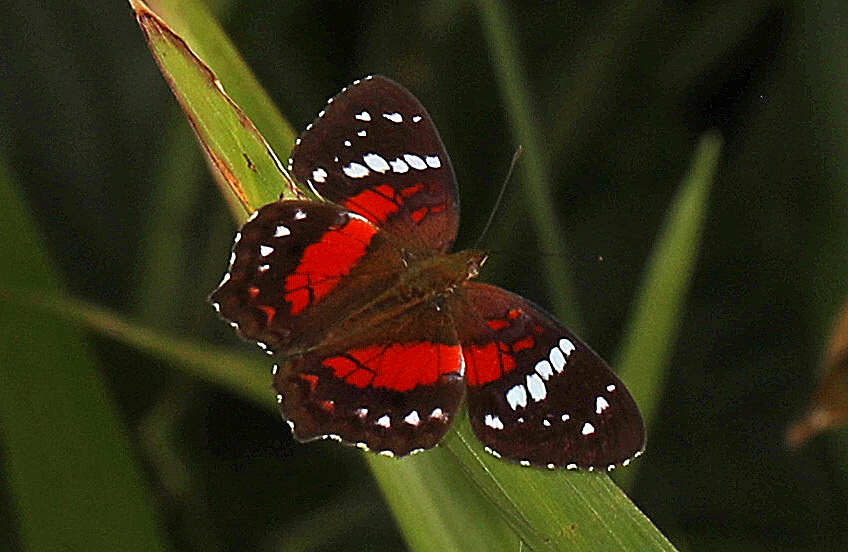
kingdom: Animalia
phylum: Arthropoda
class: Insecta
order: Lepidoptera
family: Nymphalidae
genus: Anartia
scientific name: Anartia amathea
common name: Red peacock
